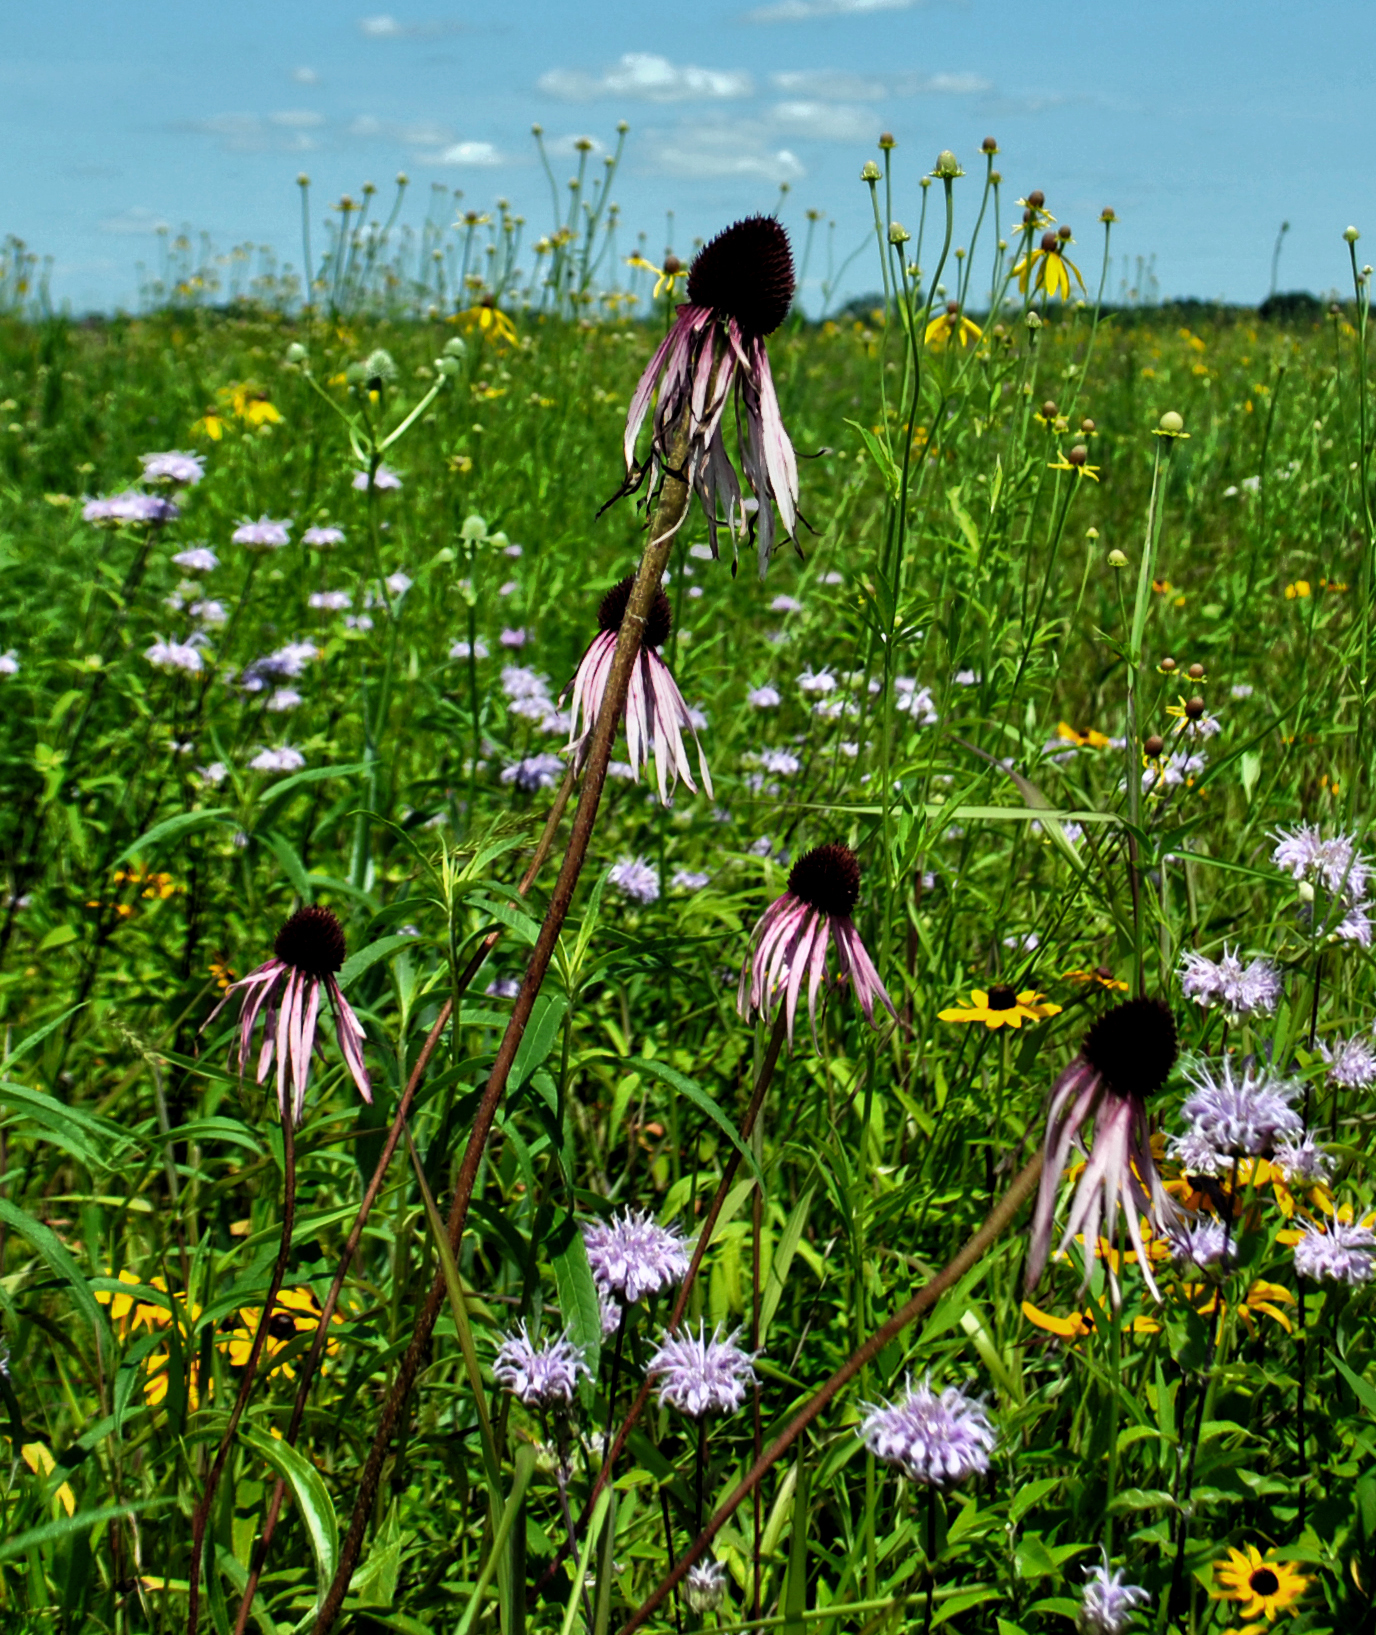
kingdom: Plantae
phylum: Tracheophyta
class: Magnoliopsida
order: Asterales
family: Asteraceae
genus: Echinacea
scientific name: Echinacea pallida
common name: Pale echinacea
